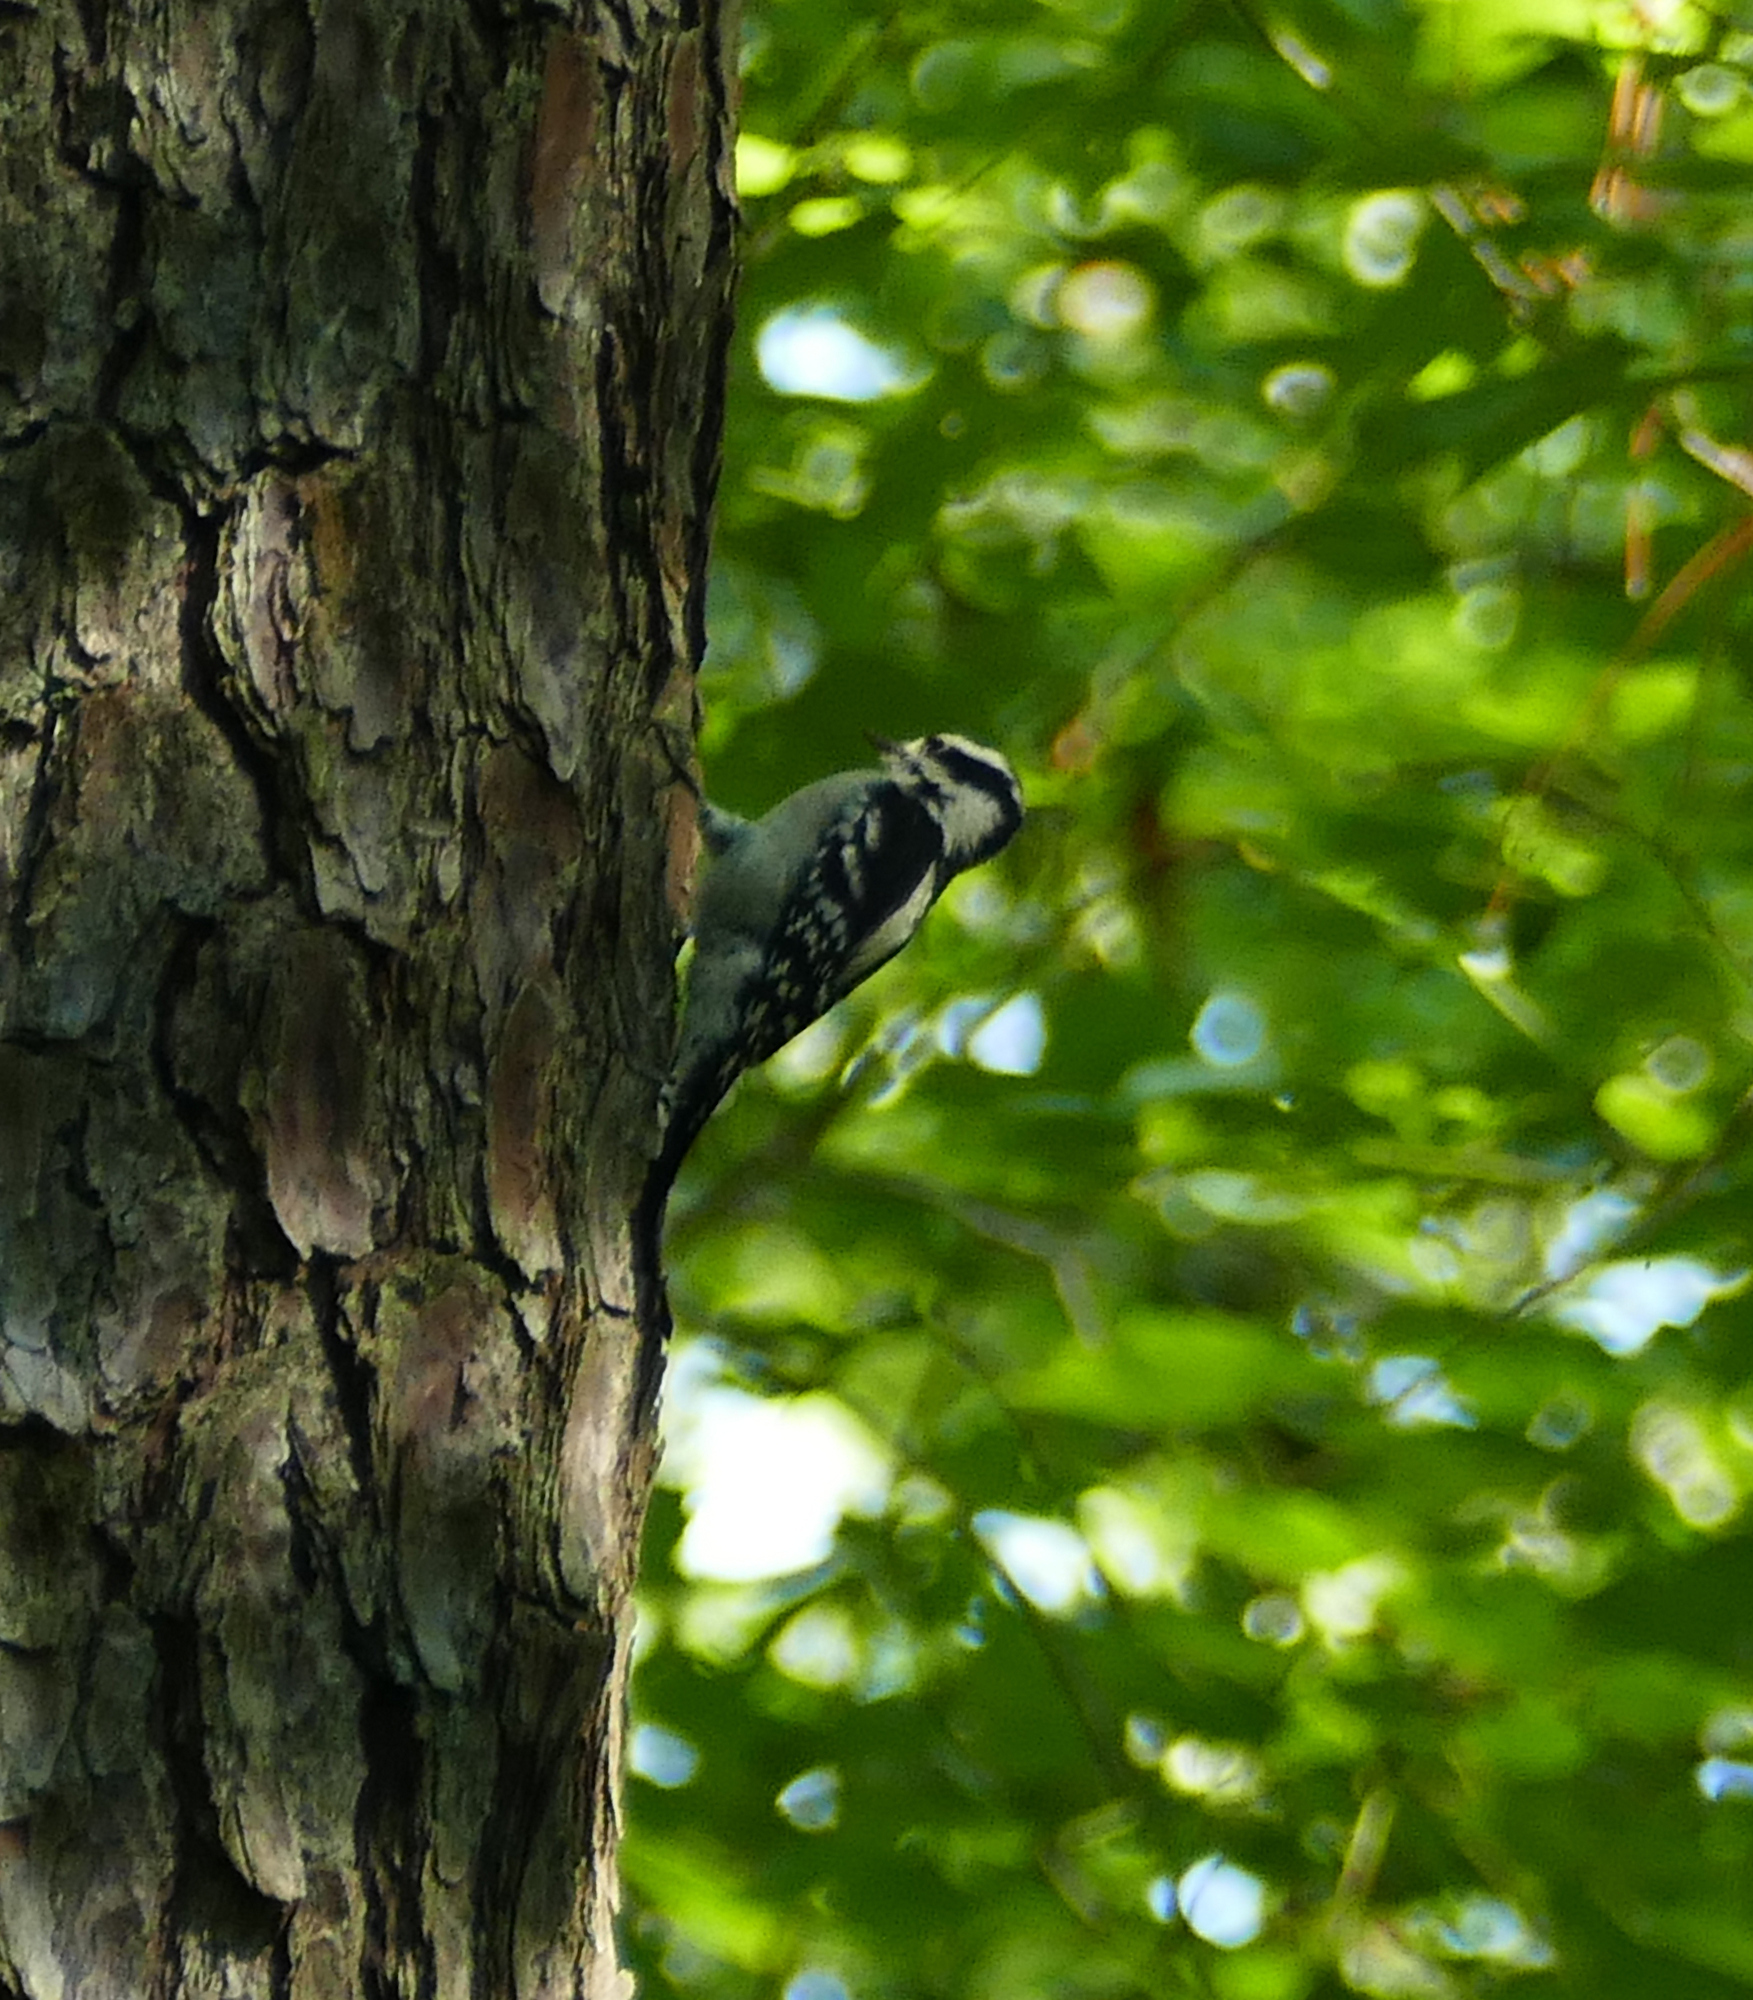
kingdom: Animalia
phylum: Chordata
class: Aves
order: Piciformes
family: Picidae
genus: Dryobates
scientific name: Dryobates pubescens
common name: Downy woodpecker
